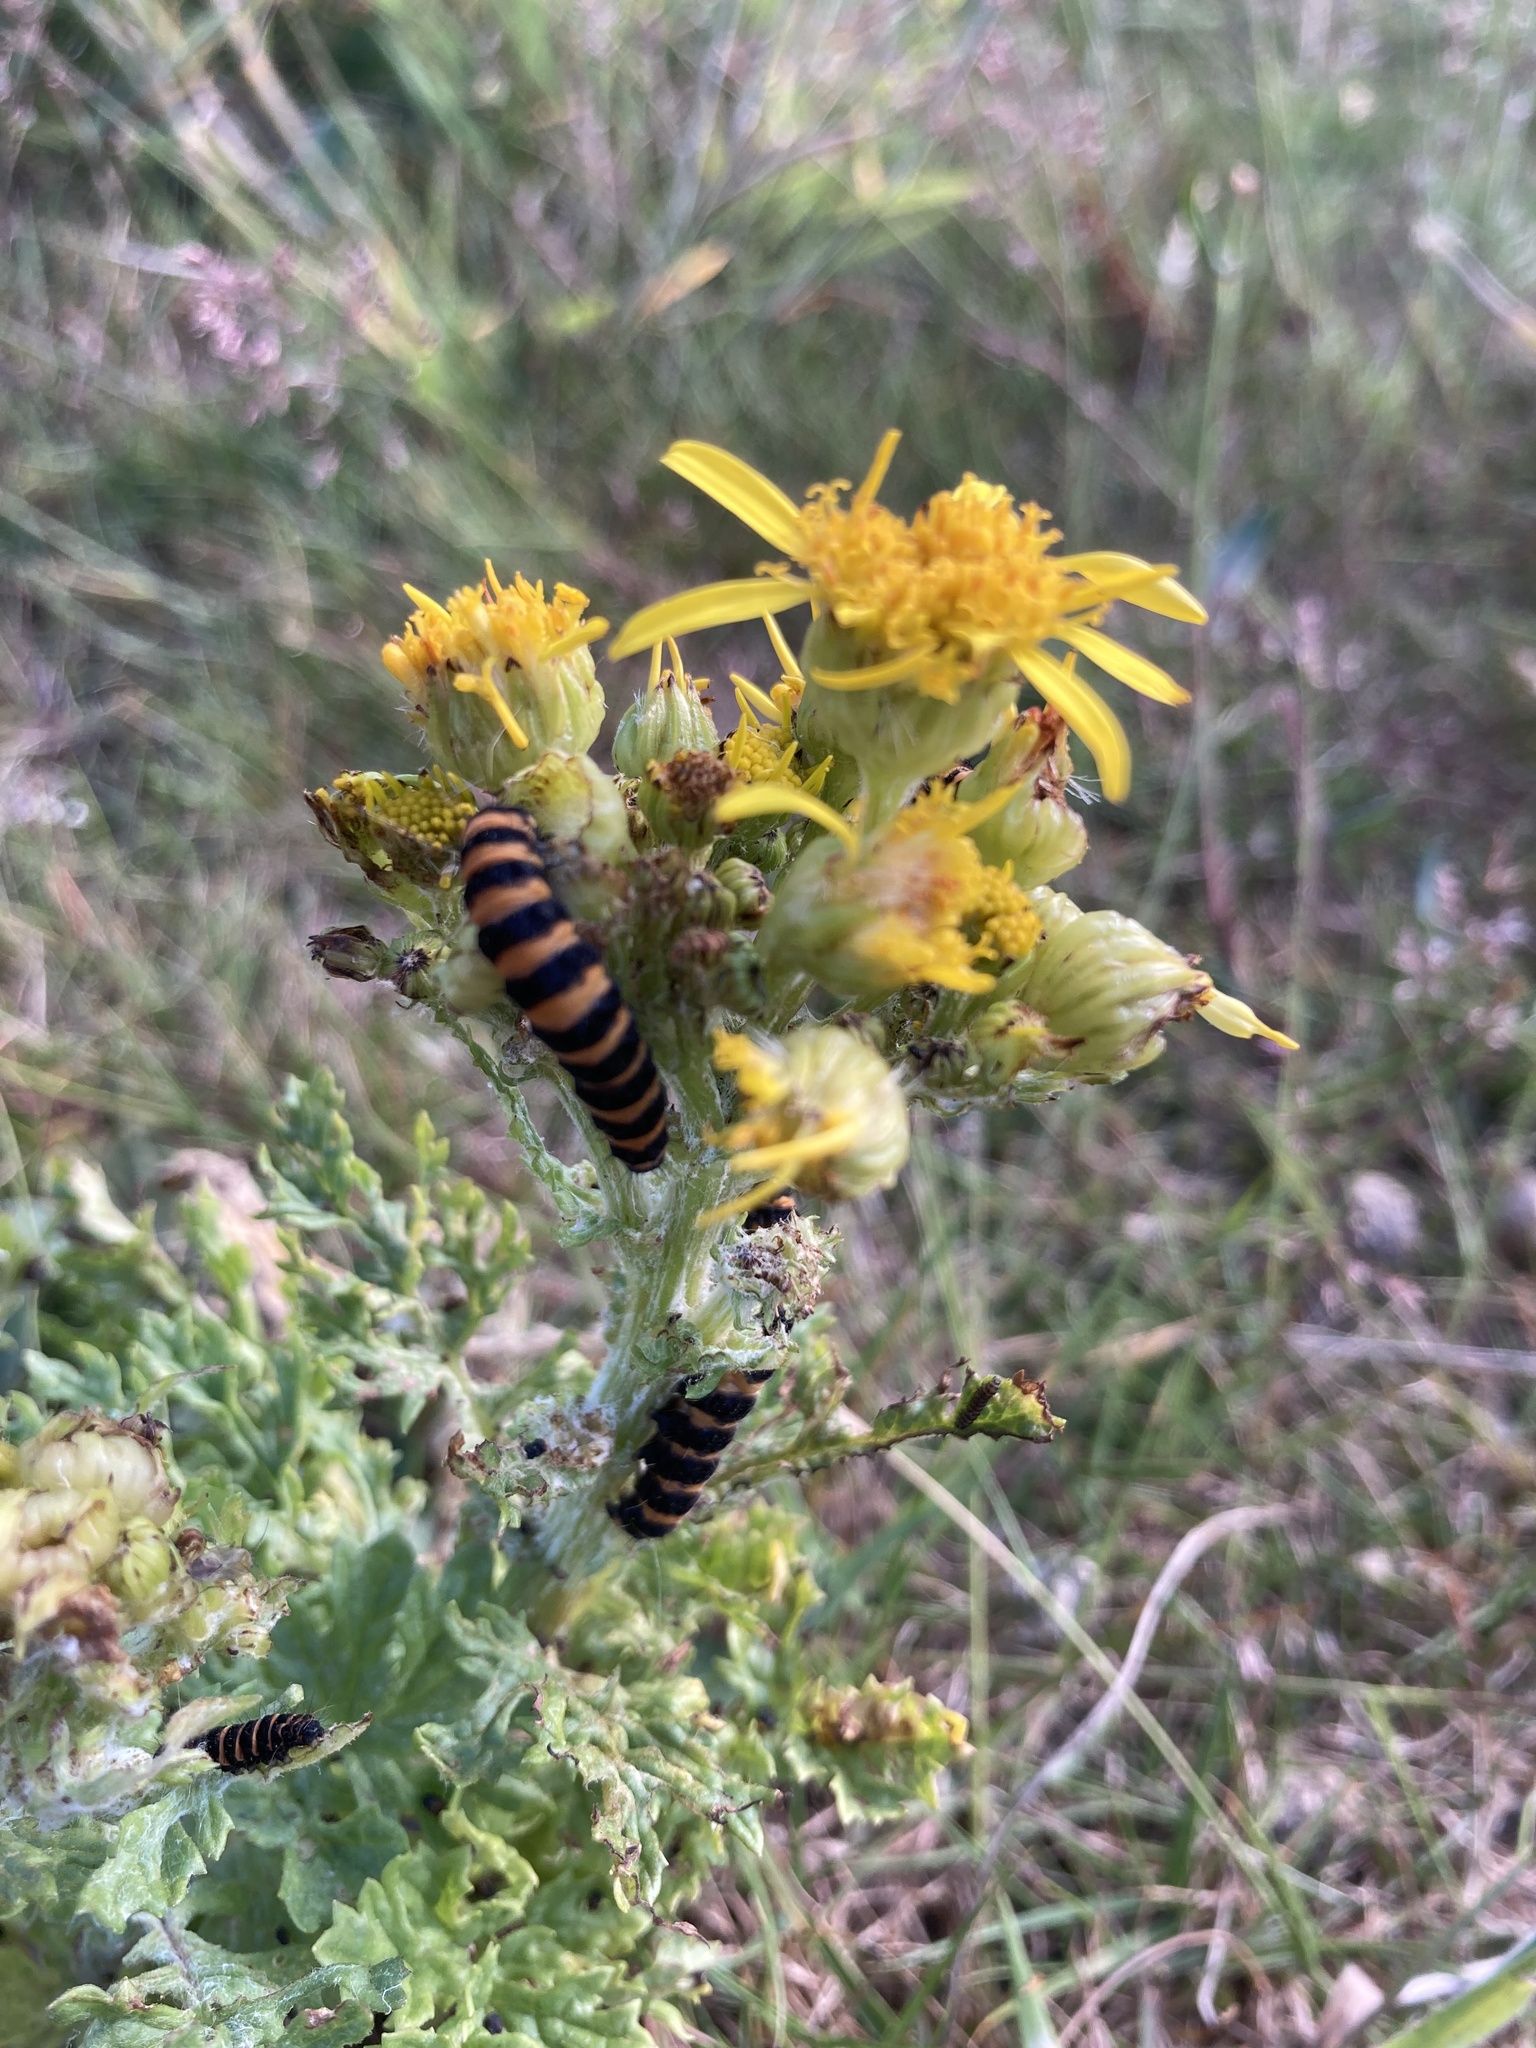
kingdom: Animalia
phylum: Arthropoda
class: Insecta
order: Lepidoptera
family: Erebidae
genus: Tyria
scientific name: Tyria jacobaeae
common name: Cinnabar
